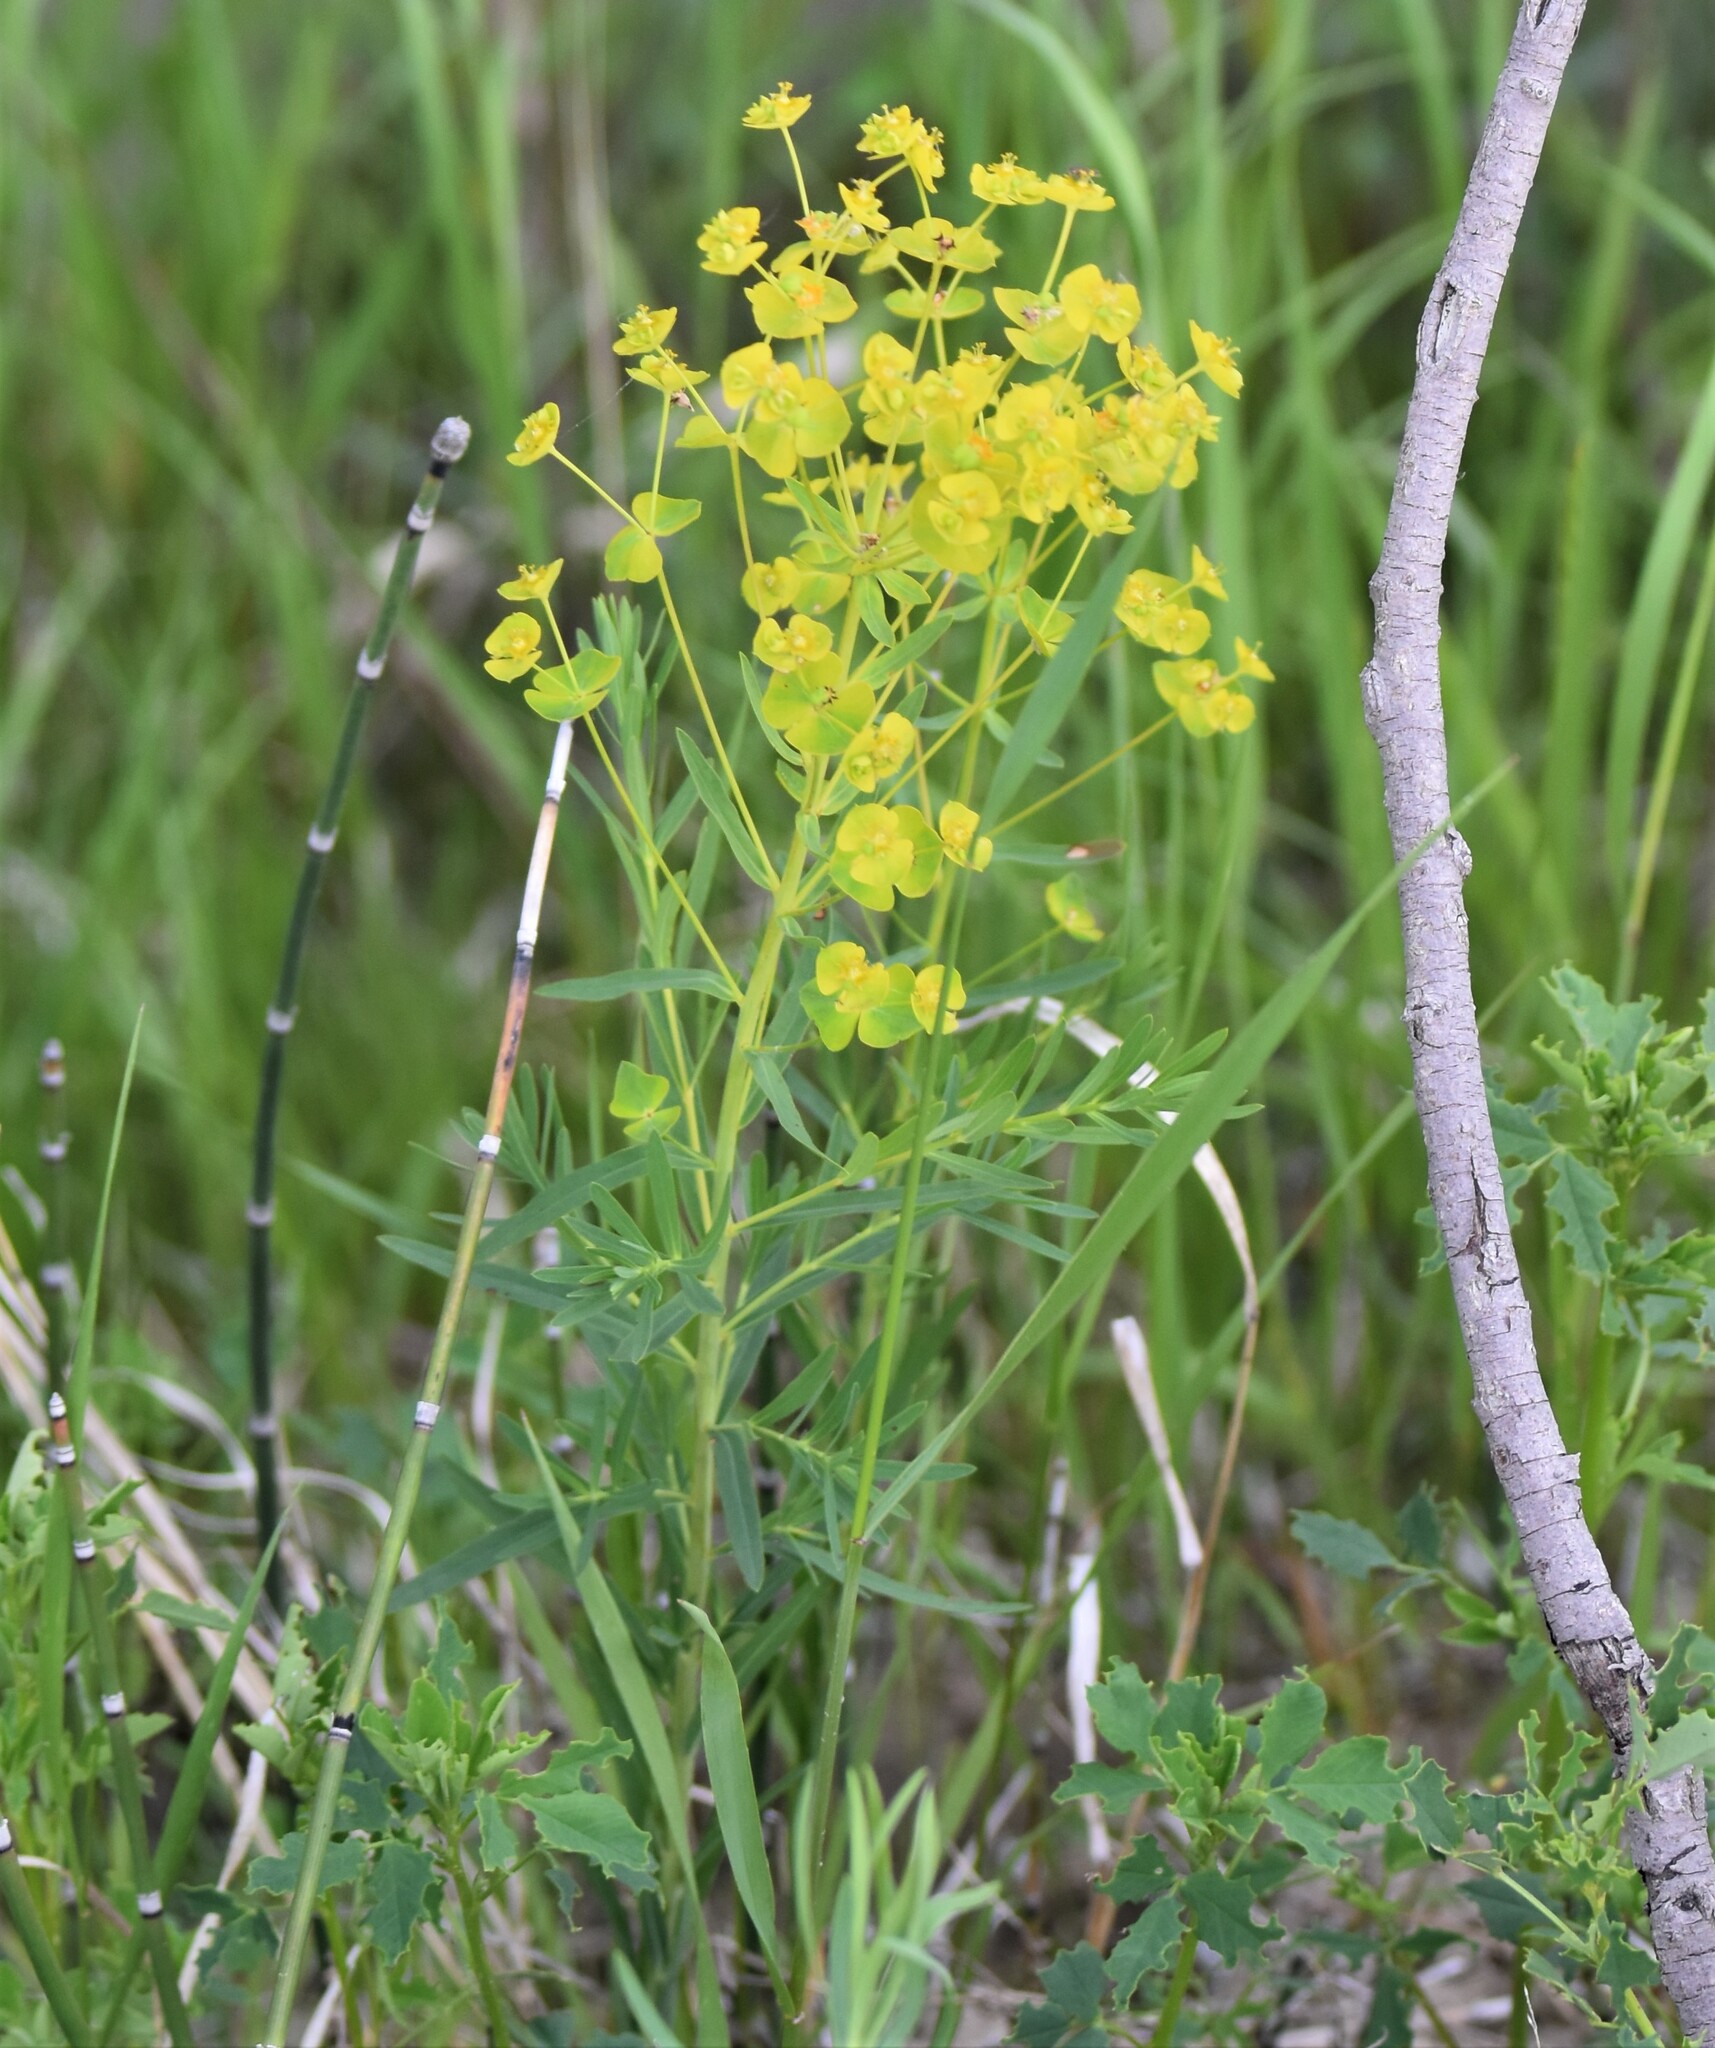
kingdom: Plantae
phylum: Tracheophyta
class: Magnoliopsida
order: Malpighiales
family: Euphorbiaceae
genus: Euphorbia
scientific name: Euphorbia virgata
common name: Leafy spurge
